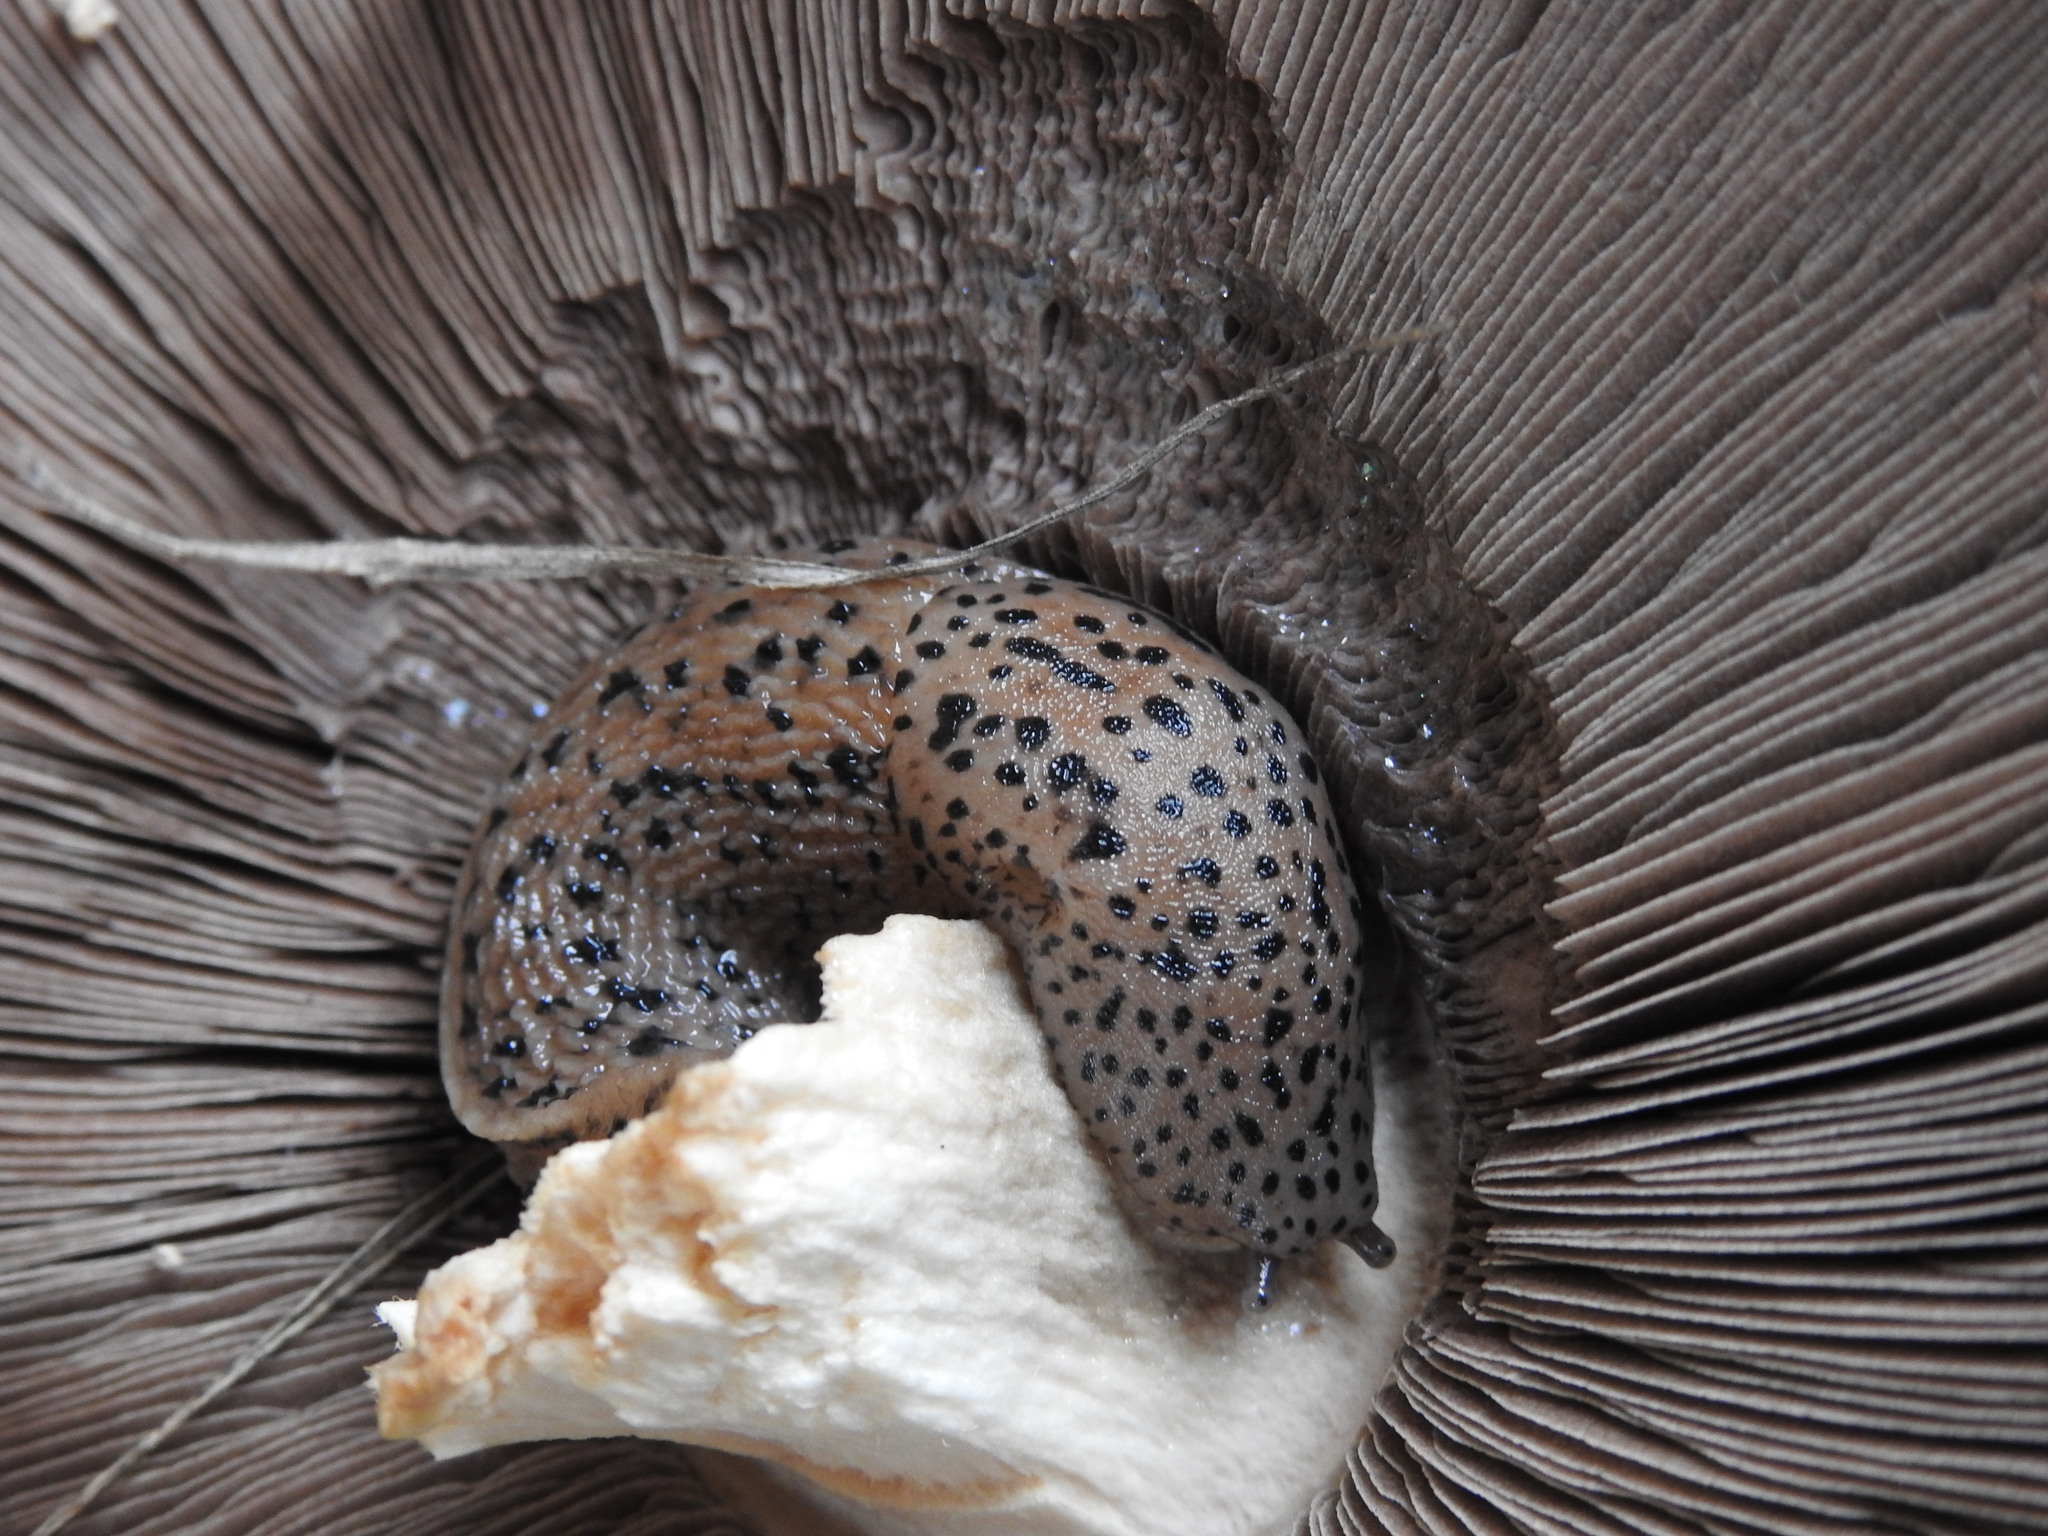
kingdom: Animalia
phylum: Mollusca
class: Gastropoda
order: Stylommatophora
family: Limacidae
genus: Limax
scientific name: Limax maximus
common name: Great grey slug
